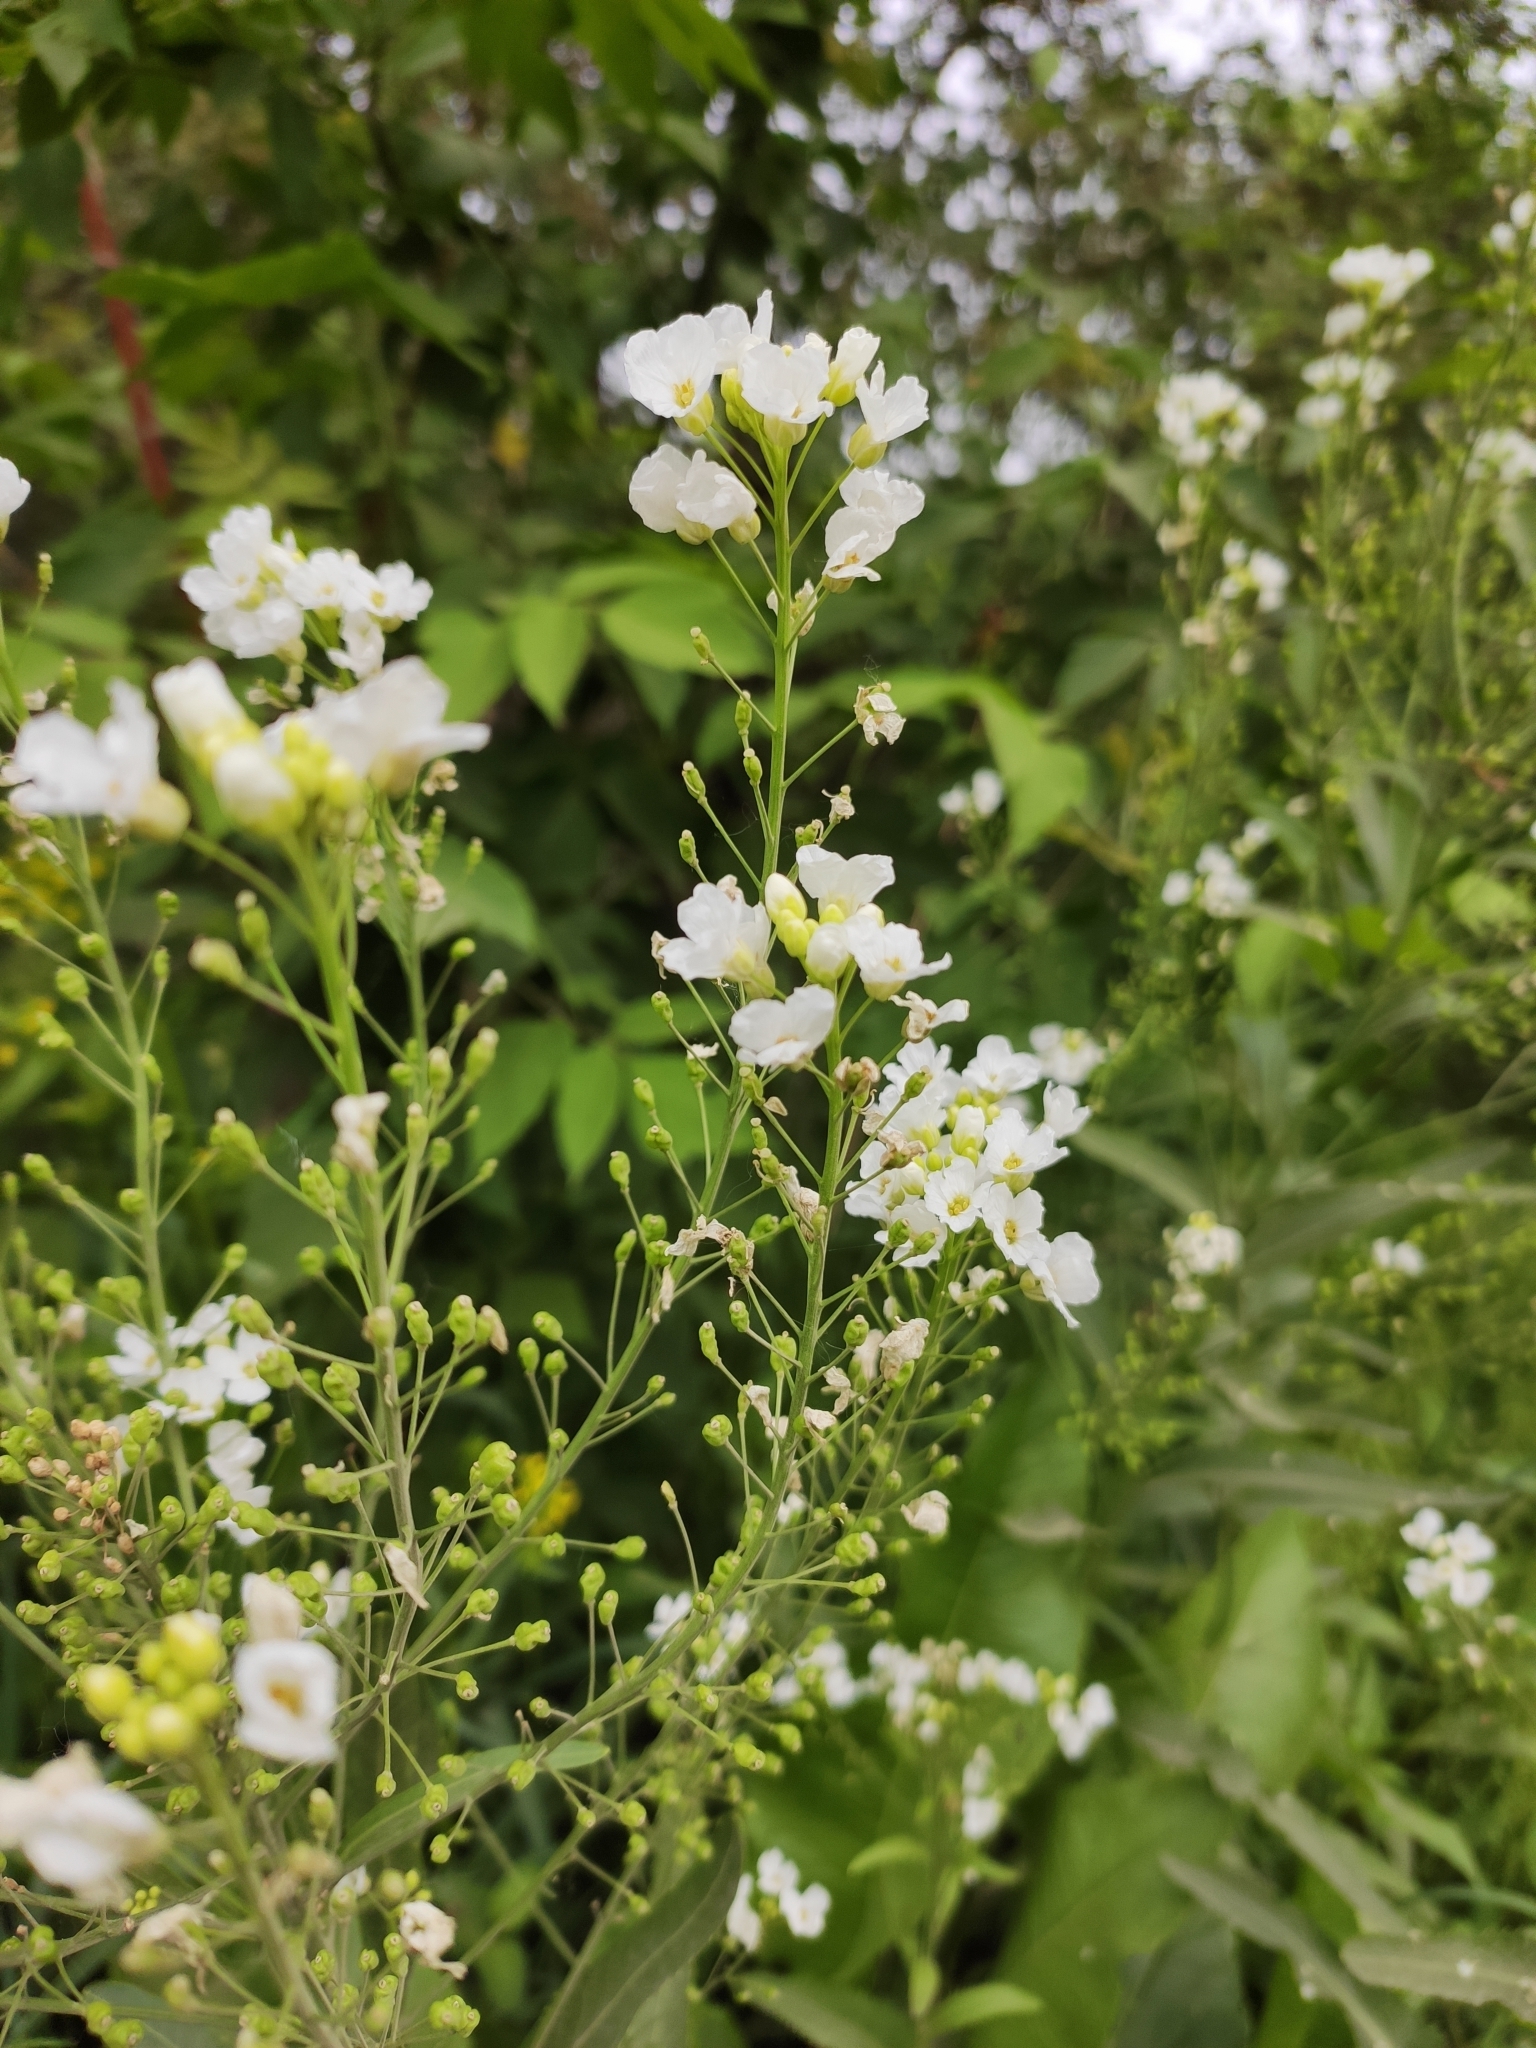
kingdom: Plantae
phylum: Tracheophyta
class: Magnoliopsida
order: Brassicales
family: Brassicaceae
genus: Armoracia
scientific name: Armoracia rusticana
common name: Horseradish
